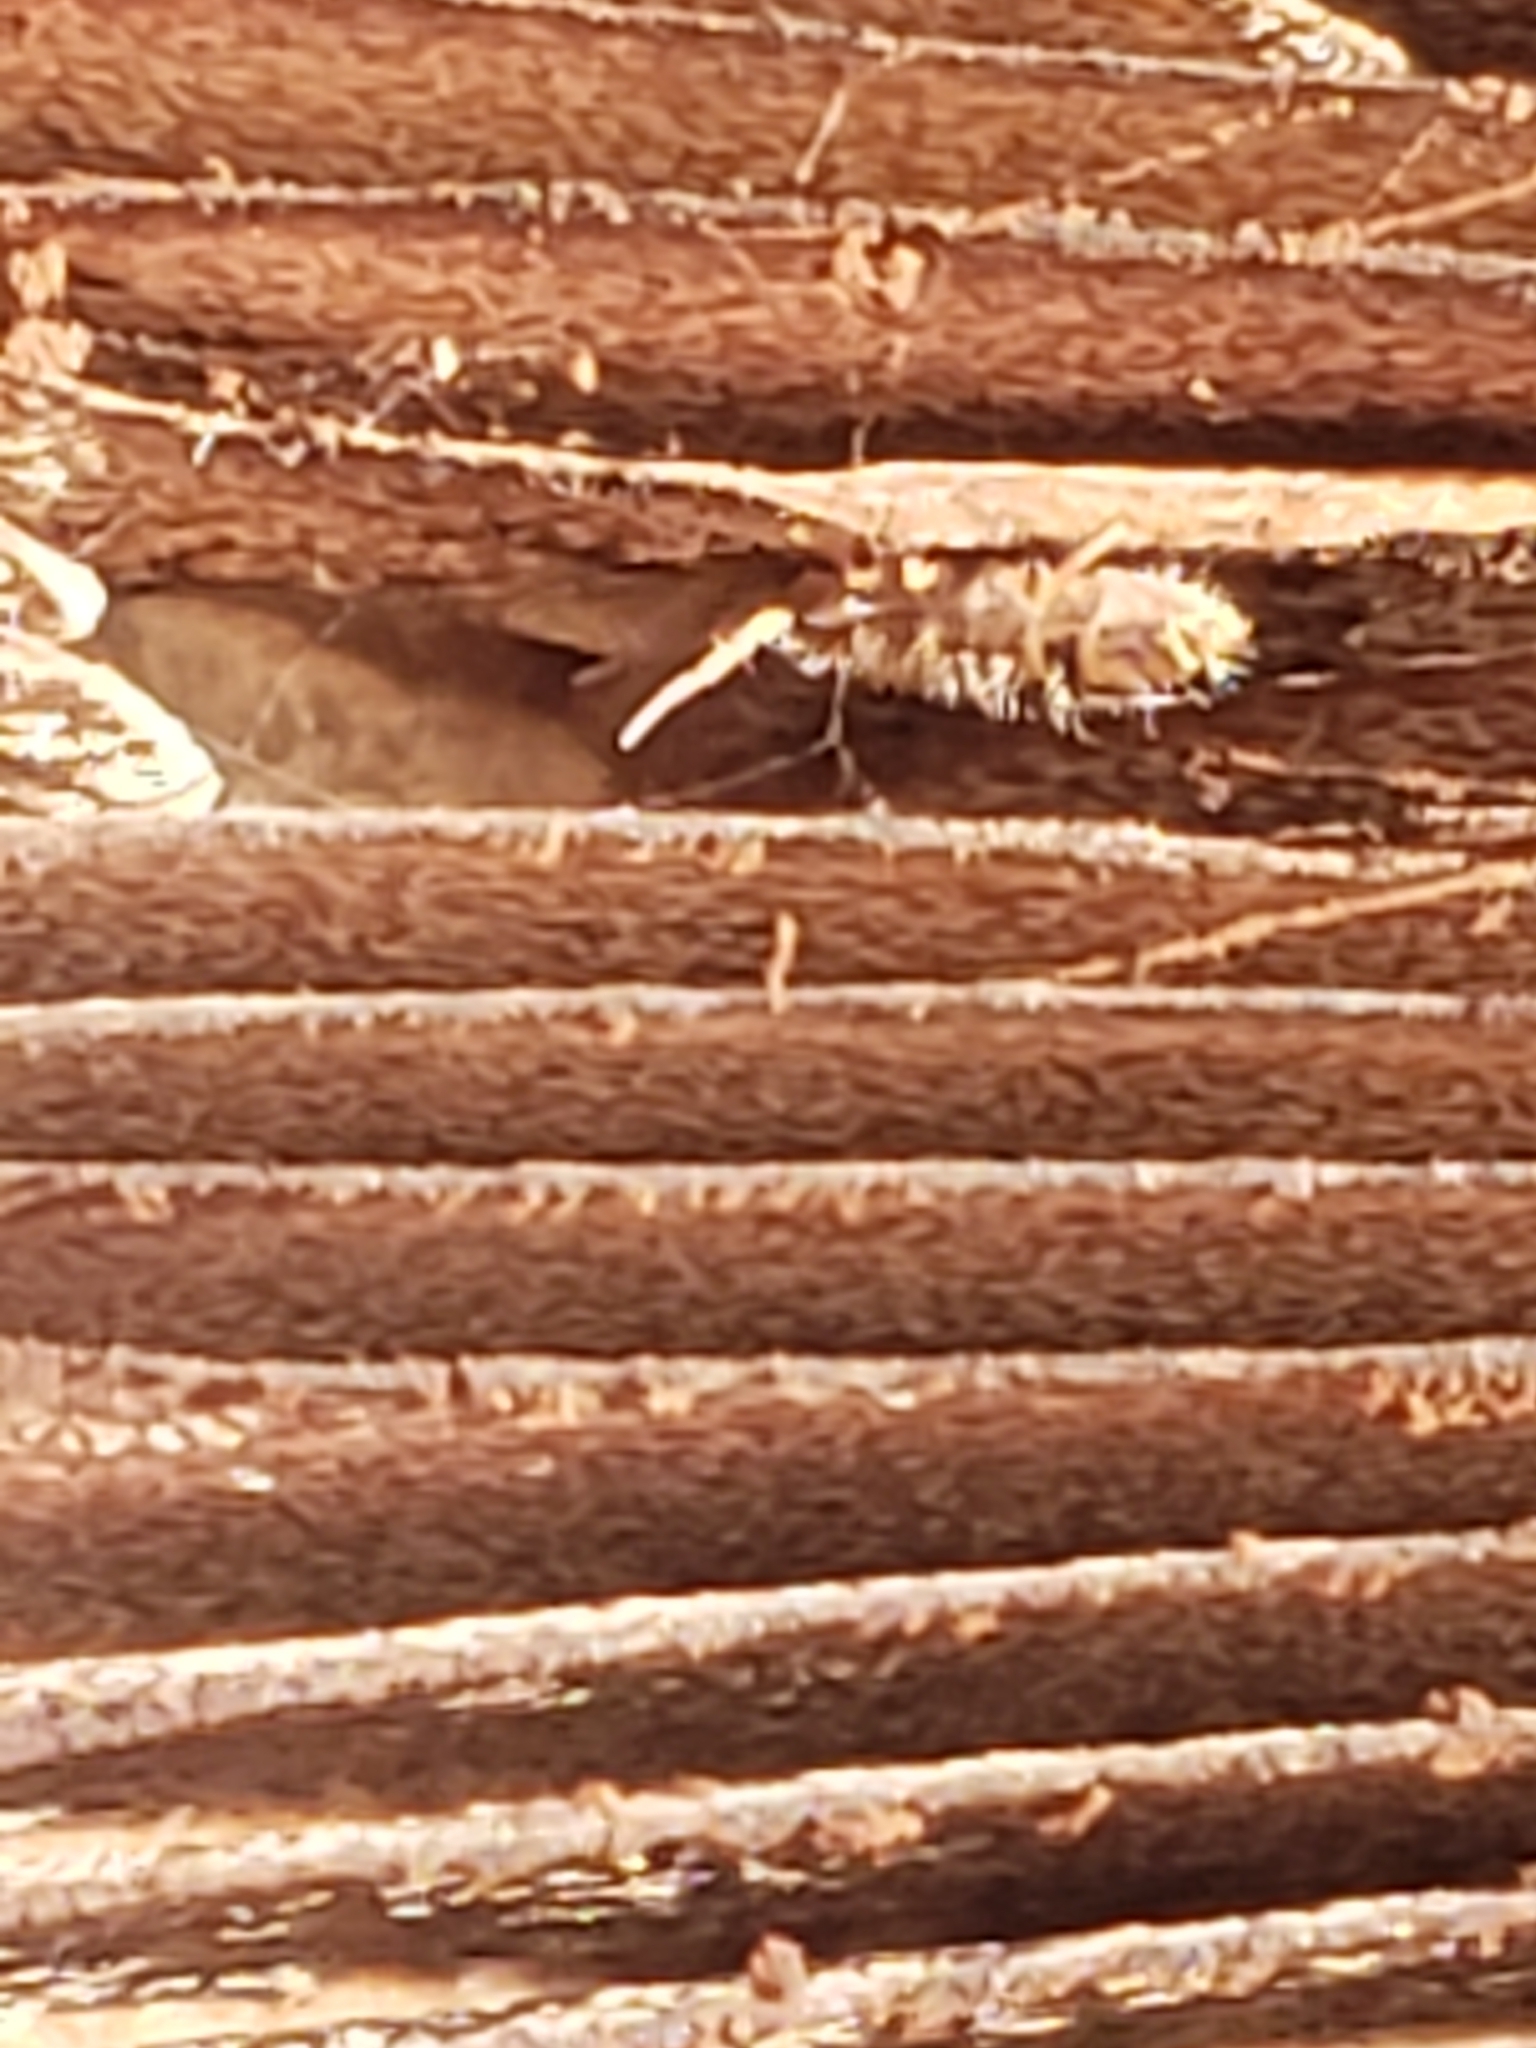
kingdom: Animalia
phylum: Arthropoda
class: Collembola
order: Entomobryomorpha
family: Orchesellidae
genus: Orchesella
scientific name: Orchesella cincta
